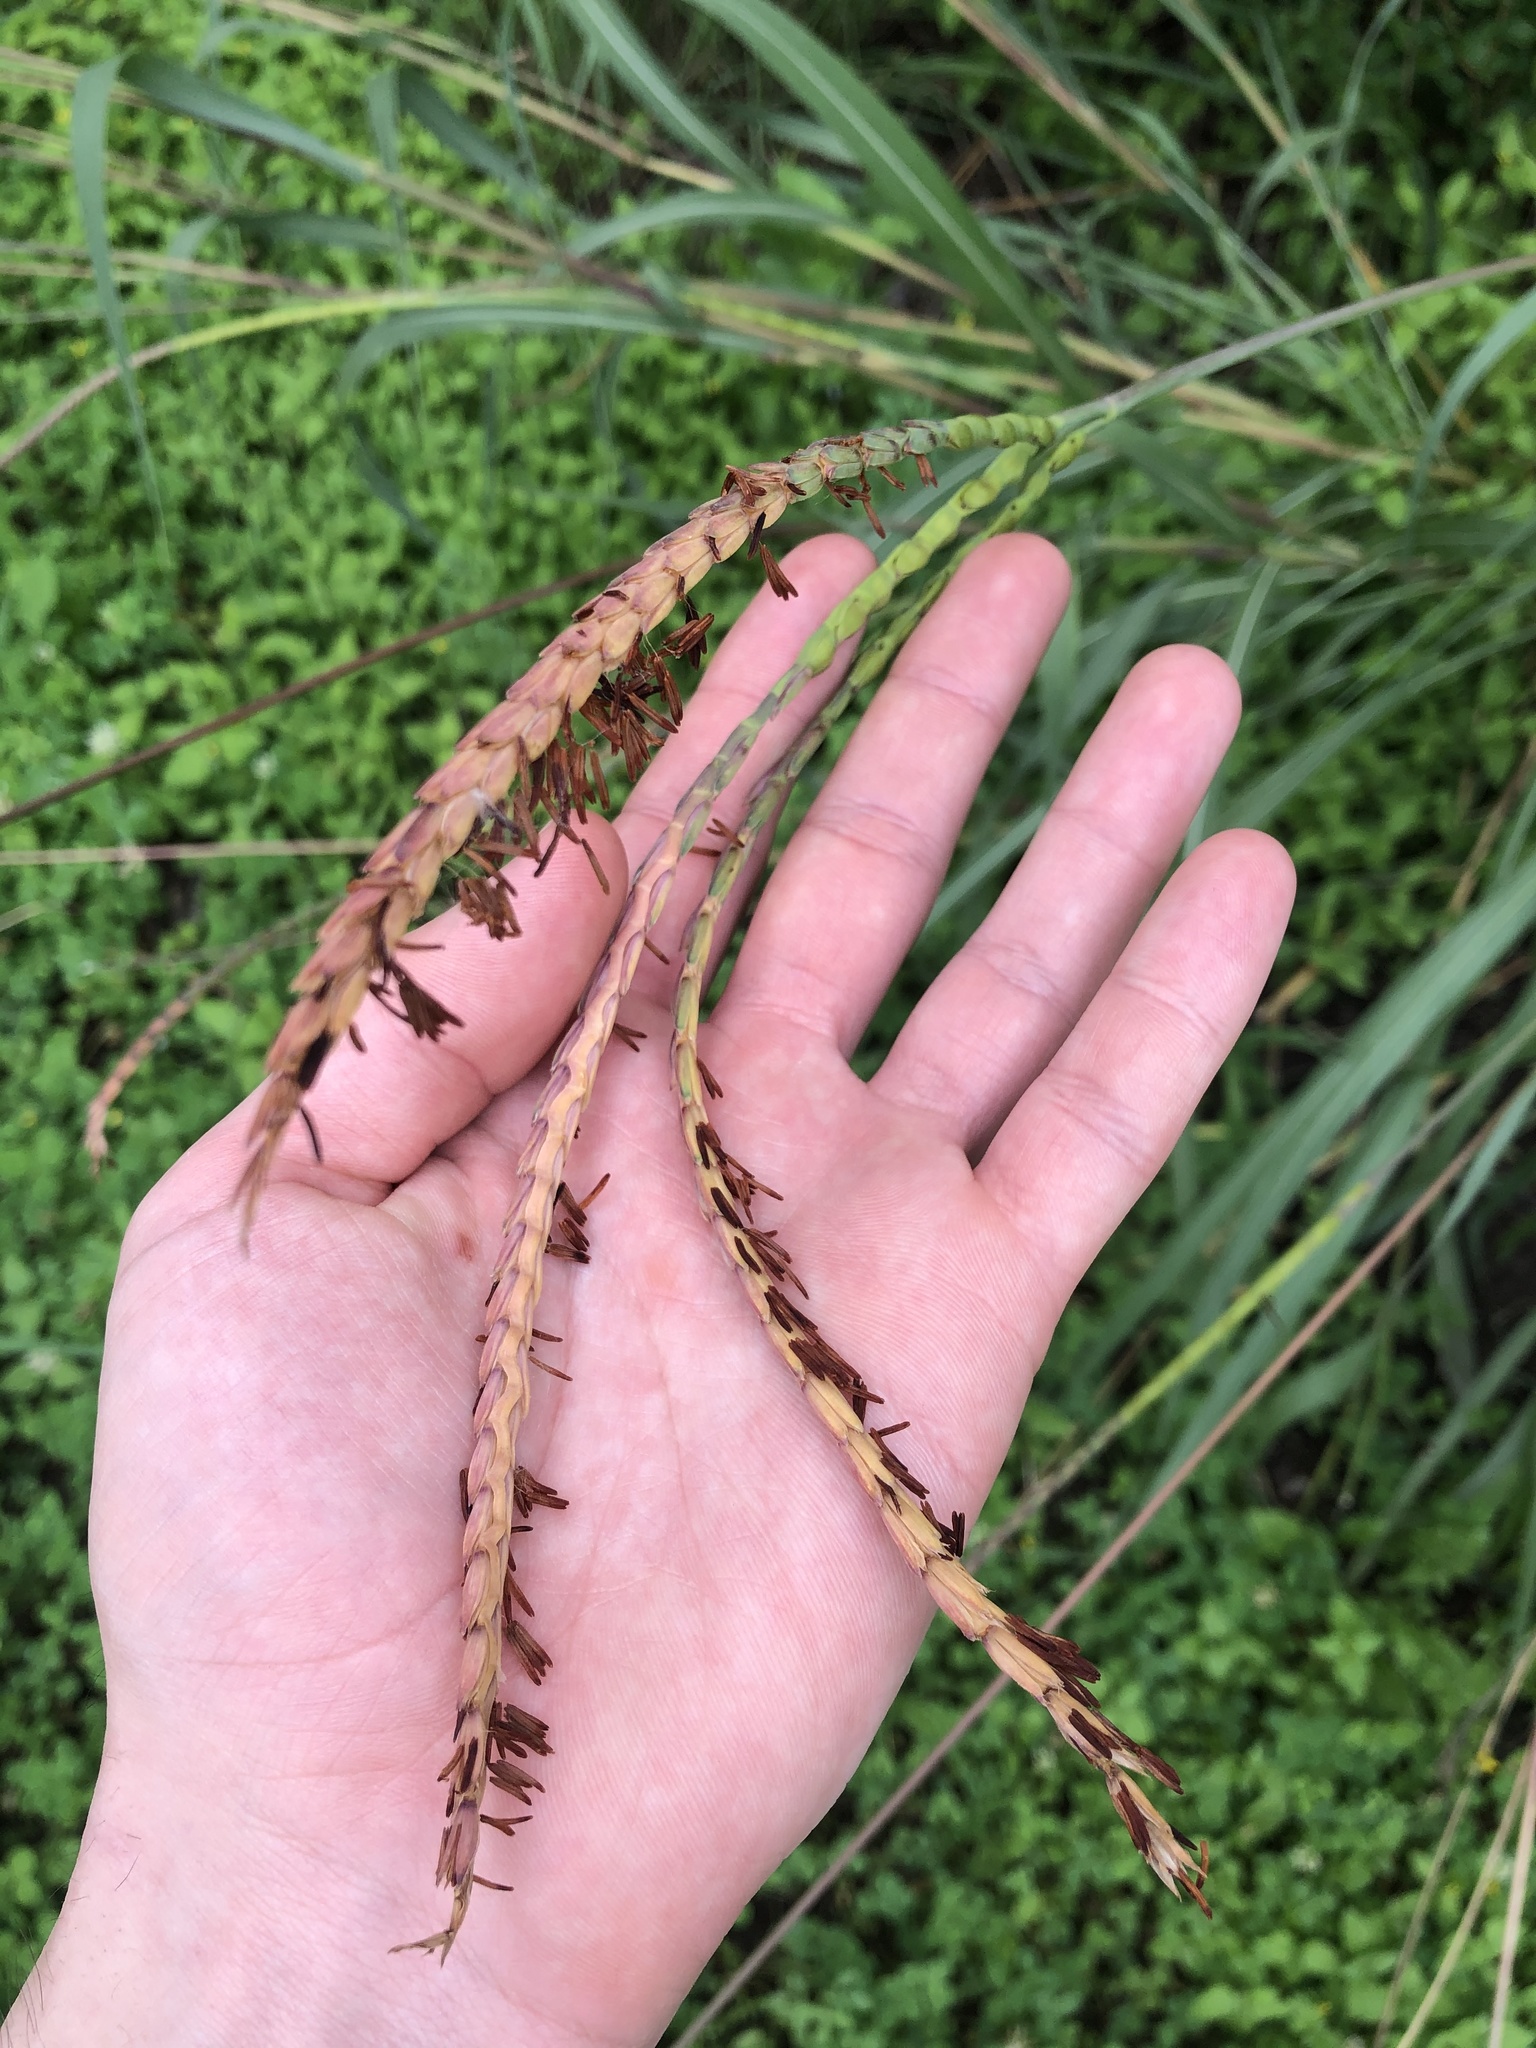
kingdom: Plantae
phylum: Tracheophyta
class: Liliopsida
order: Poales
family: Poaceae
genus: Tripsacum
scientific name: Tripsacum dactyloides
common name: Buffalo-grass
